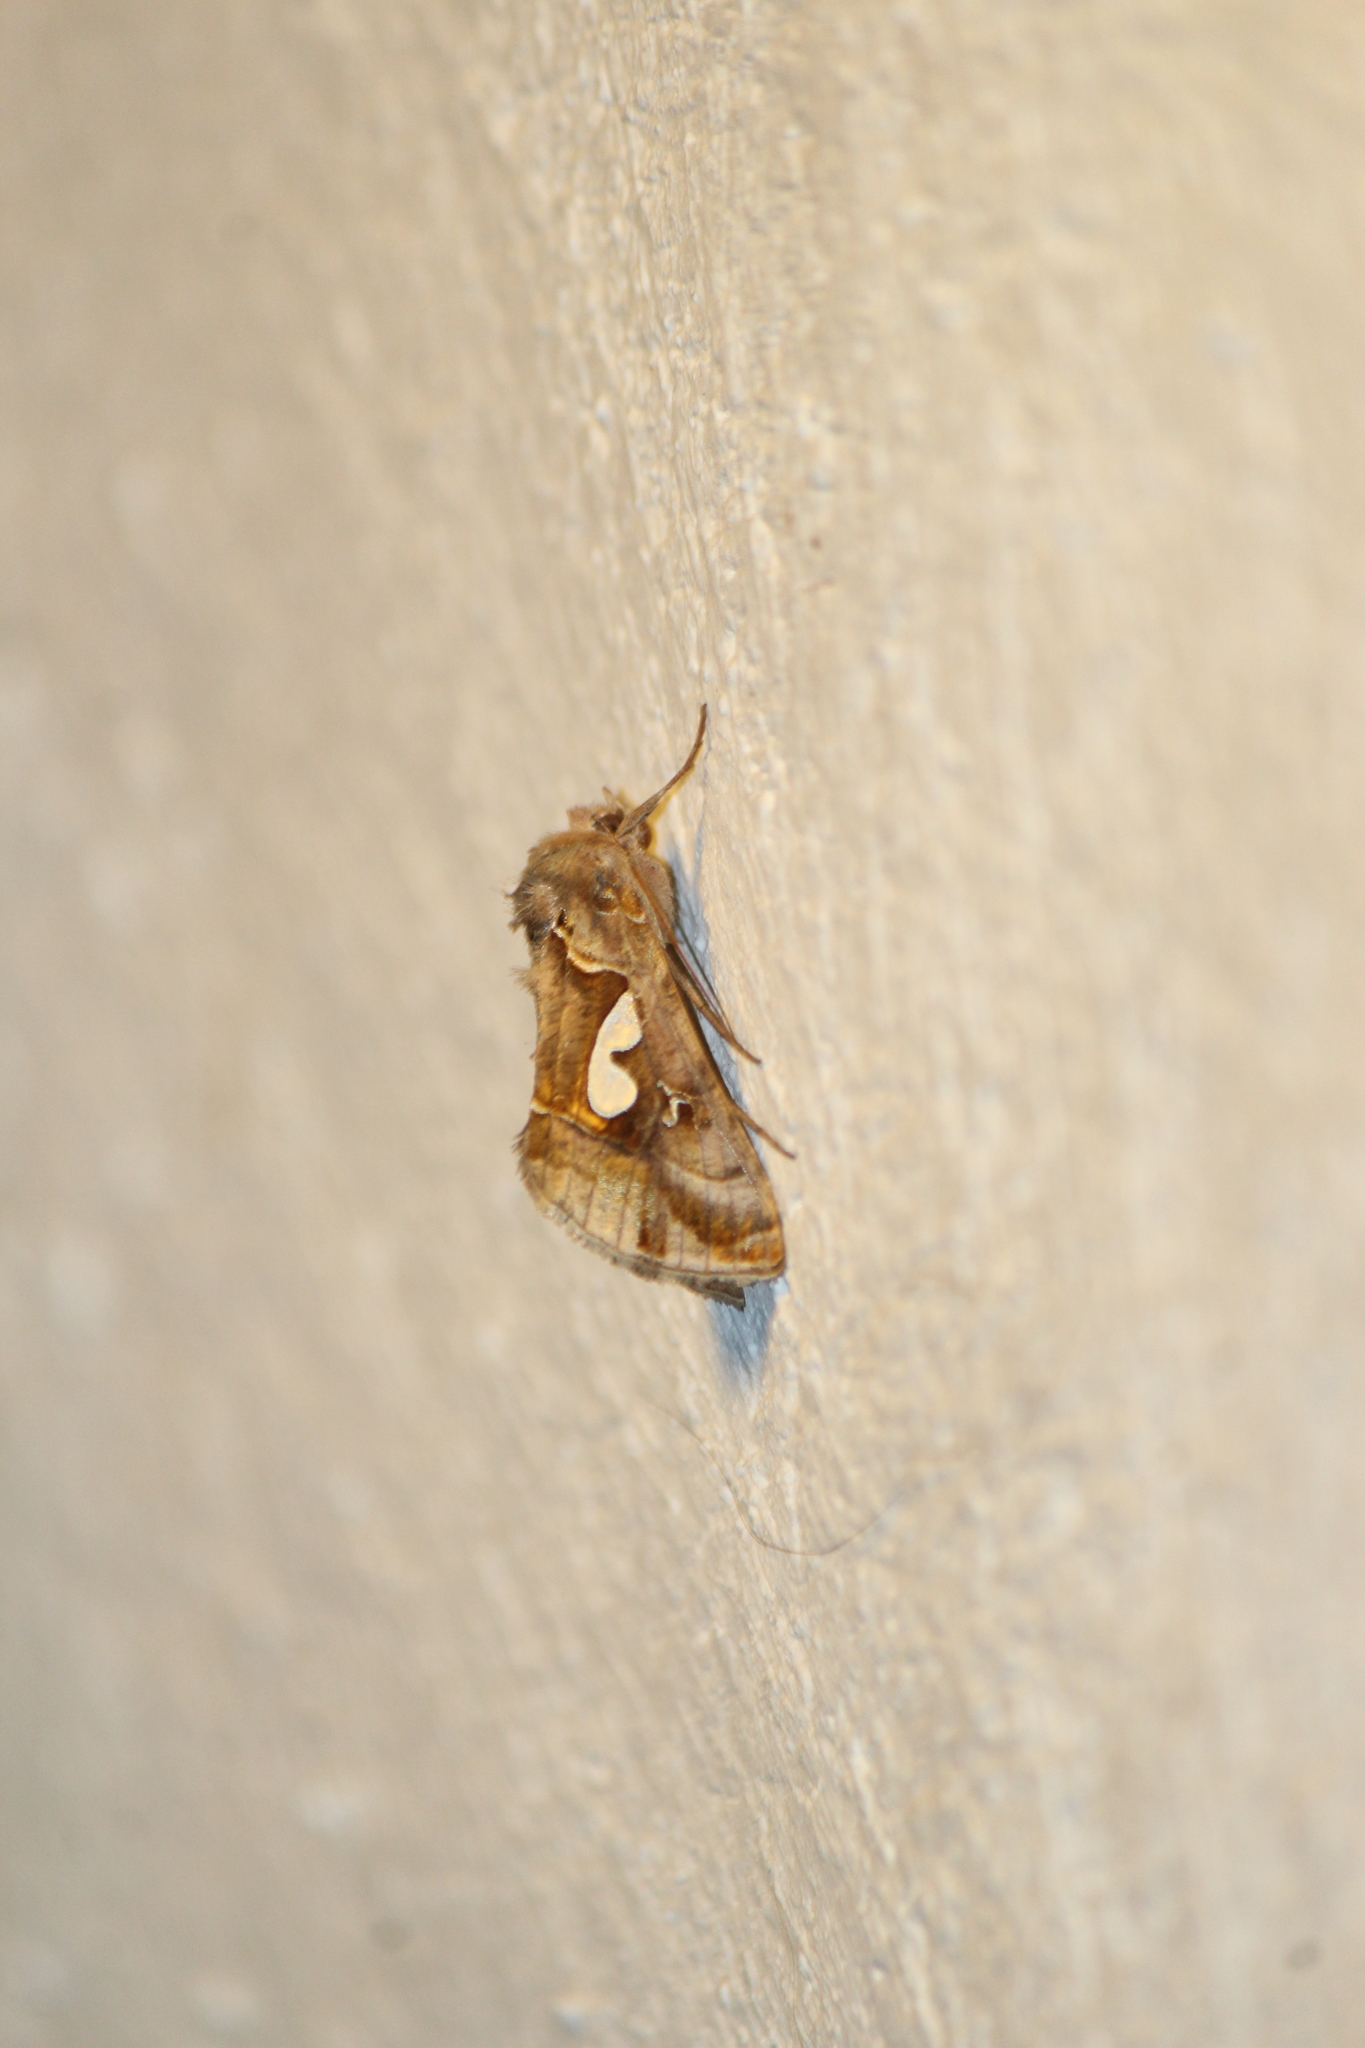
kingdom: Animalia
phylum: Arthropoda
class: Insecta
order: Lepidoptera
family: Noctuidae
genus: Megalographa
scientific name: Megalographa biloba
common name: Cutworm
